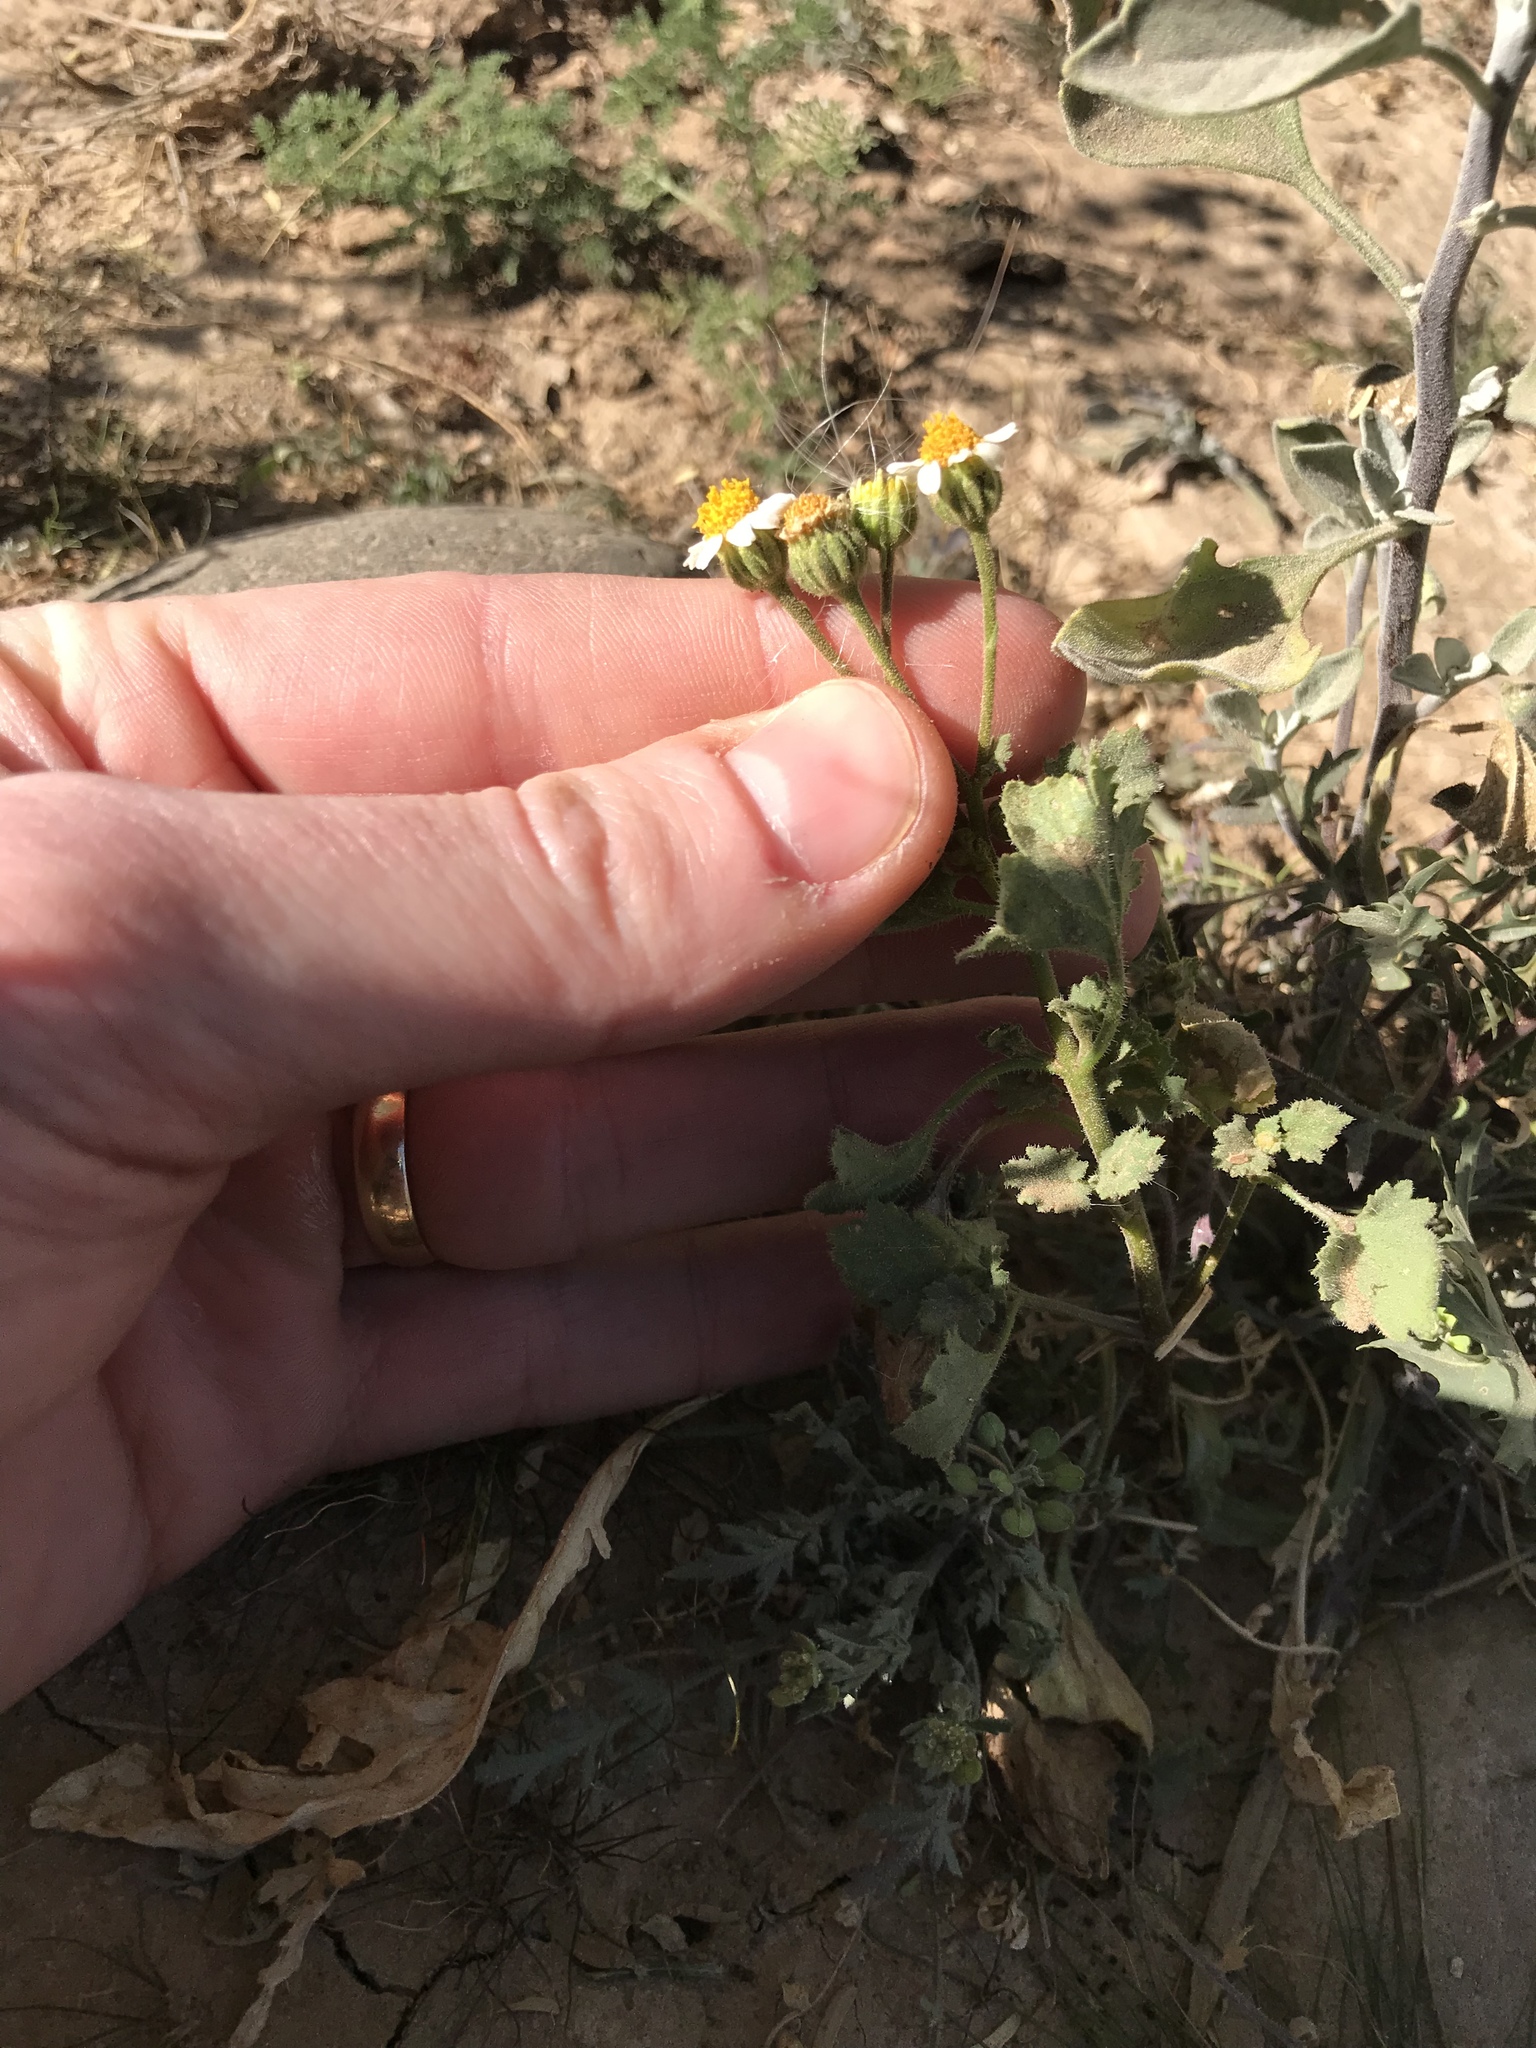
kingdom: Plantae
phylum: Tracheophyta
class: Magnoliopsida
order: Asterales
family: Asteraceae
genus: Laphamia
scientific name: Laphamia emoryi
